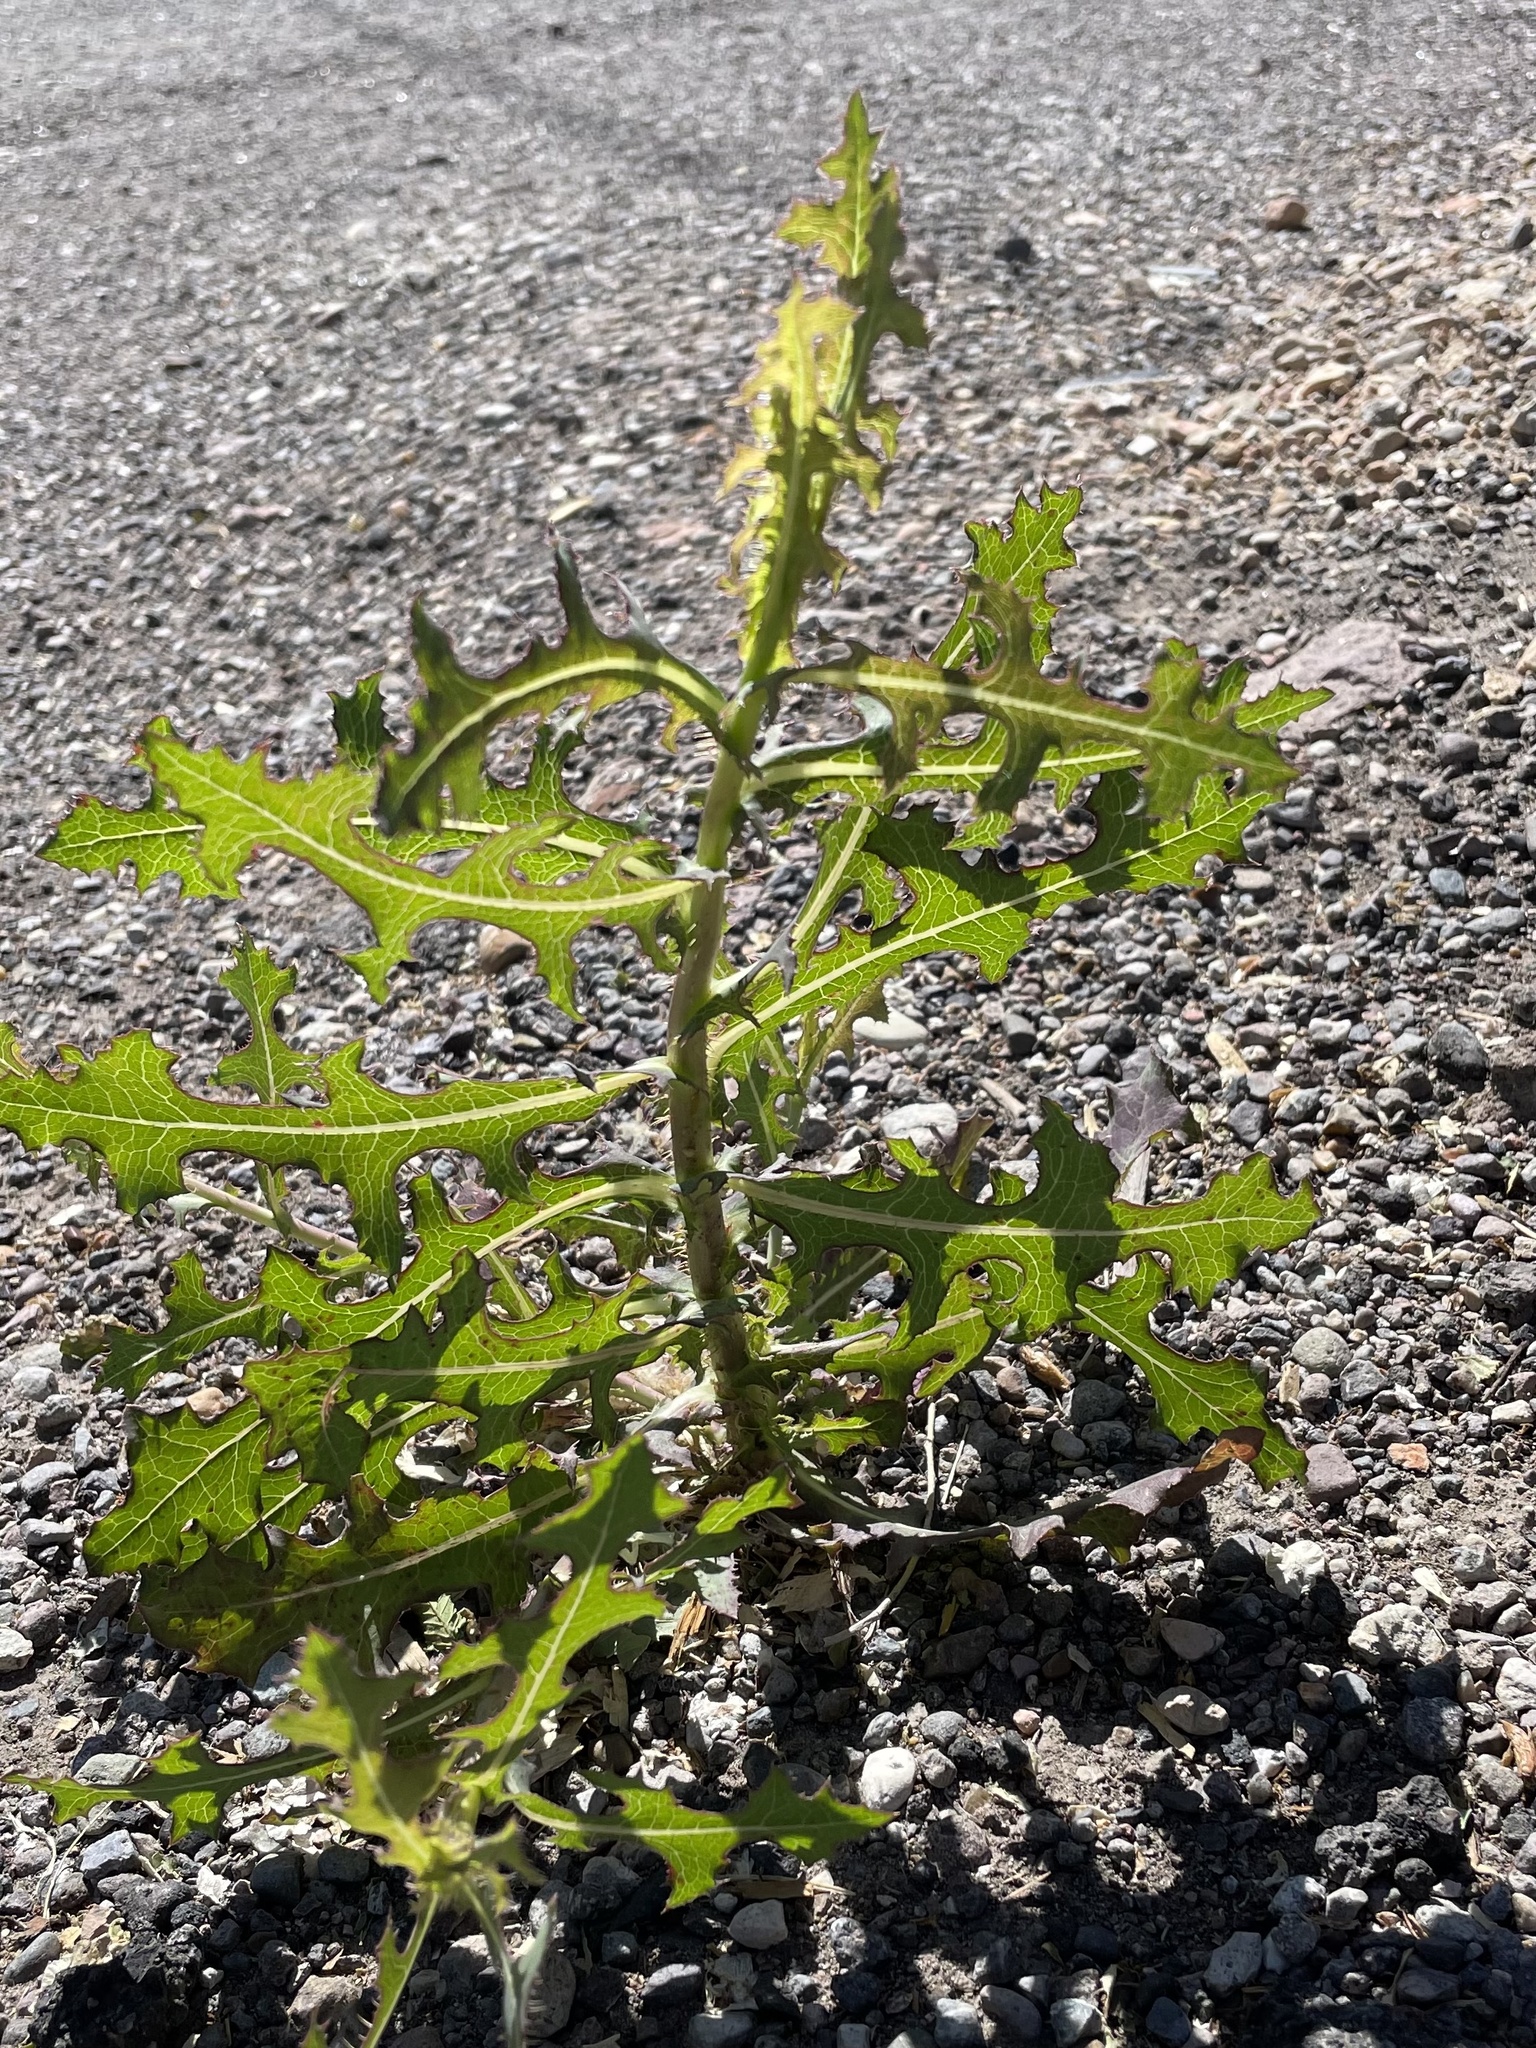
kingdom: Plantae
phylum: Tracheophyta
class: Magnoliopsida
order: Asterales
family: Asteraceae
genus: Lactuca
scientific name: Lactuca serriola
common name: Prickly lettuce
